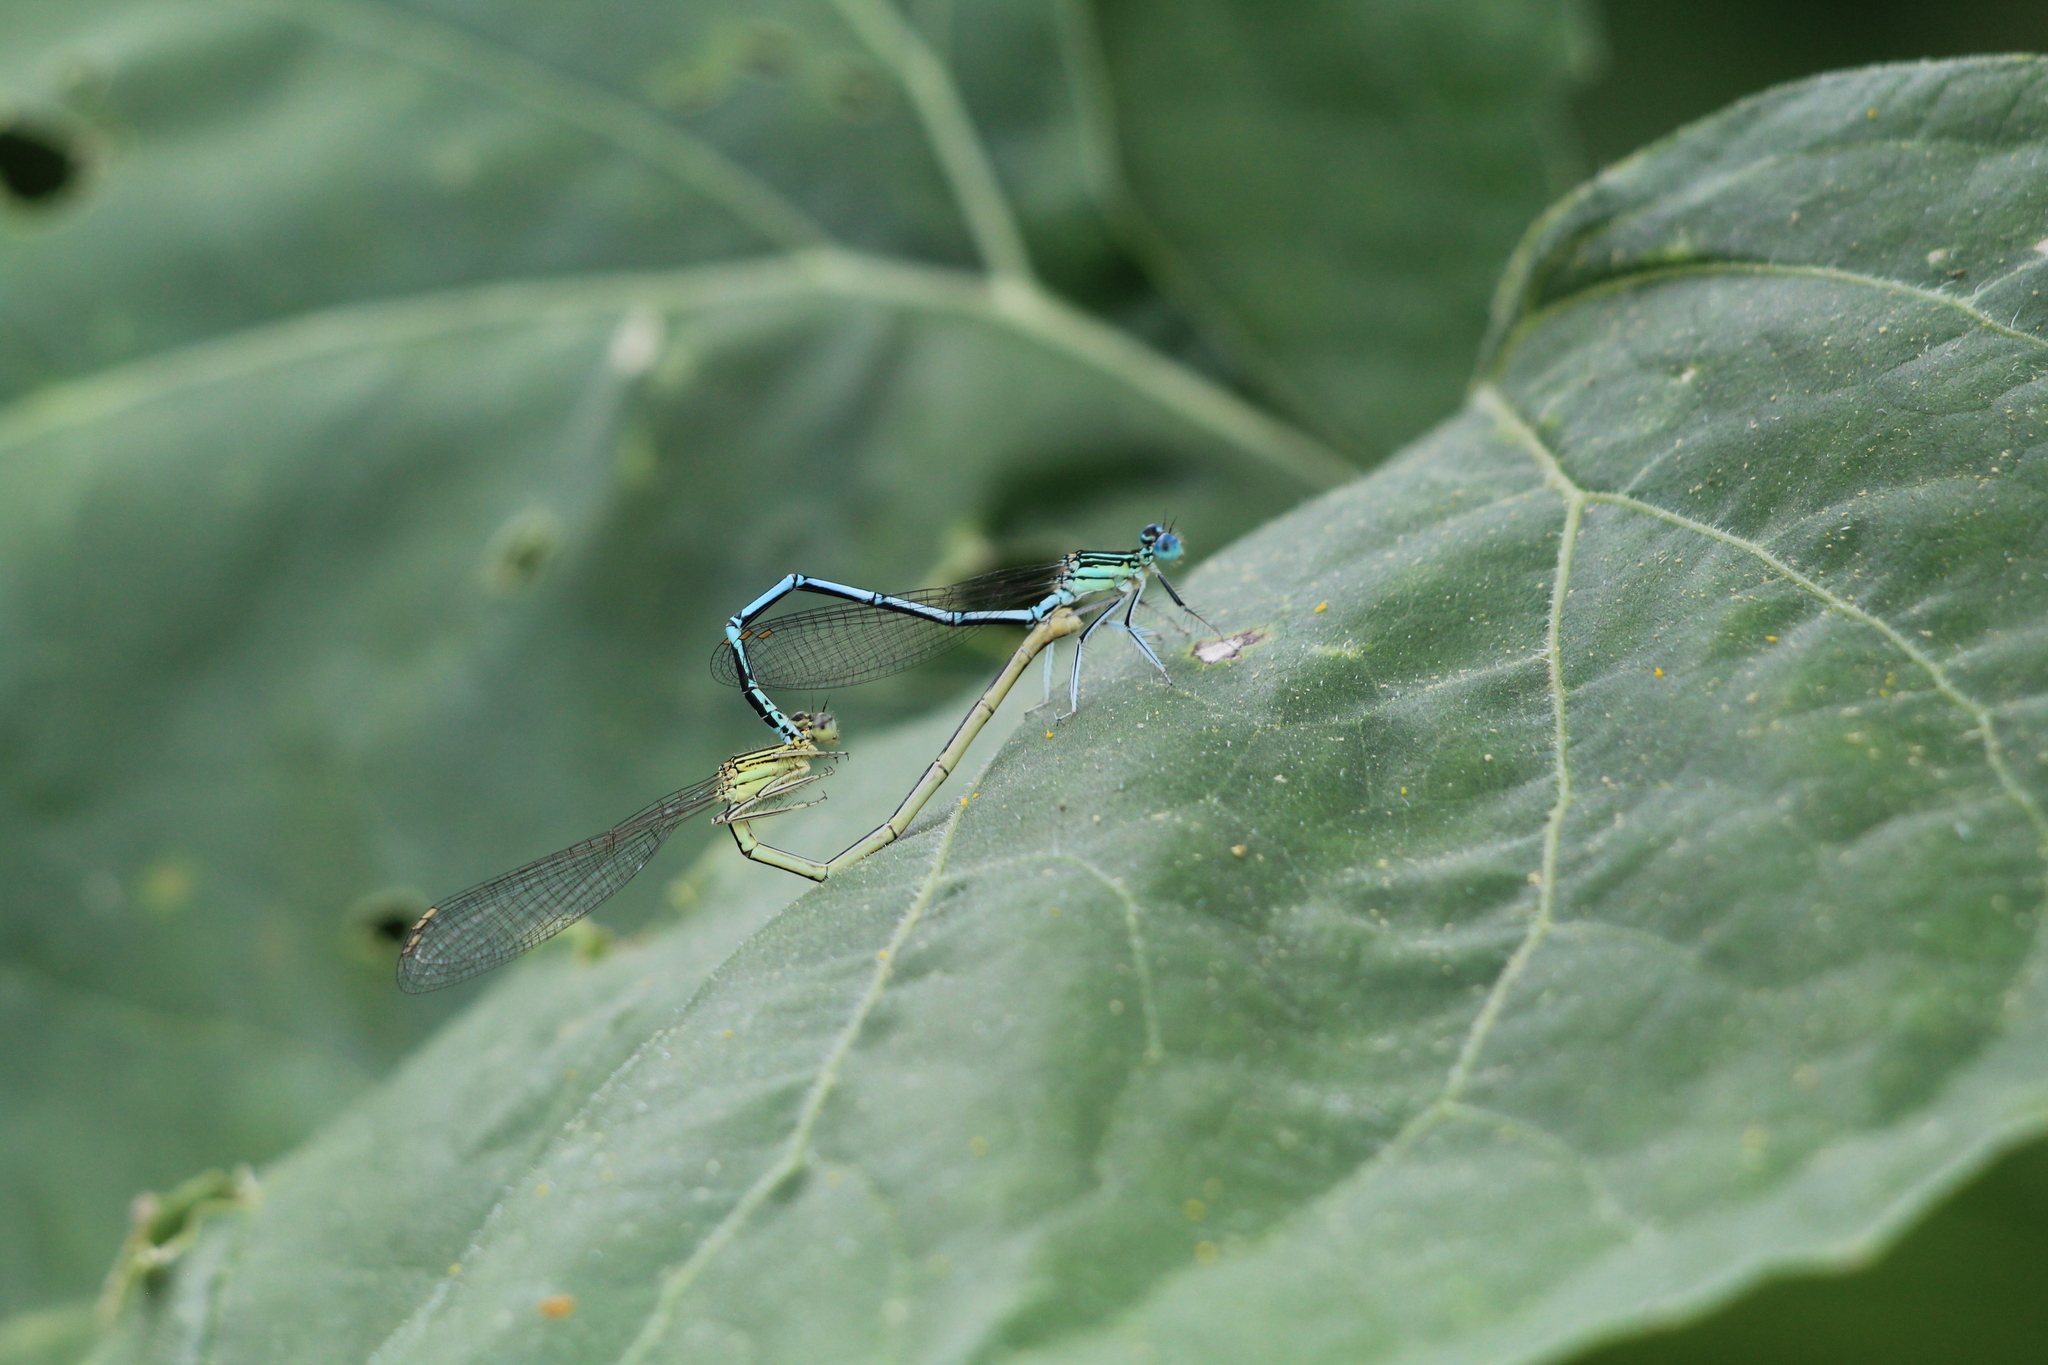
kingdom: Animalia
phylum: Arthropoda
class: Insecta
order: Odonata
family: Platycnemididae
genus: Platycnemis
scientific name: Platycnemis pennipes
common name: White-legged damselfly
